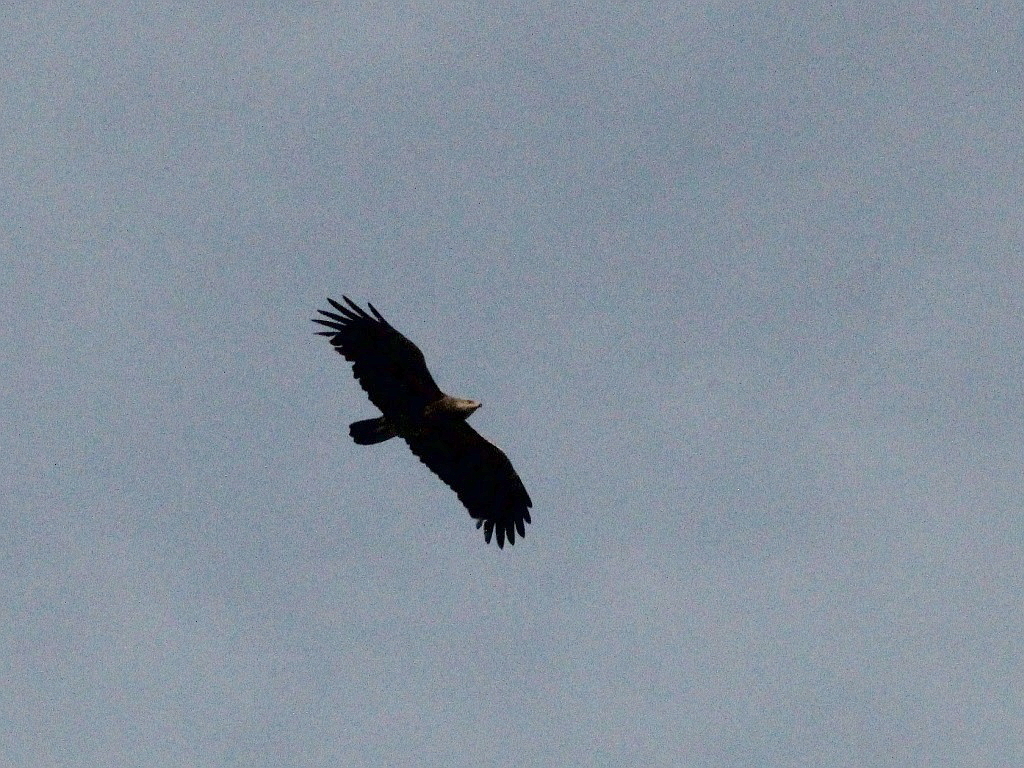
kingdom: Animalia
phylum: Chordata
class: Aves
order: Accipitriformes
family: Accipitridae
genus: Aquila
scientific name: Aquila pomarina
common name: Lesser spotted eagle
